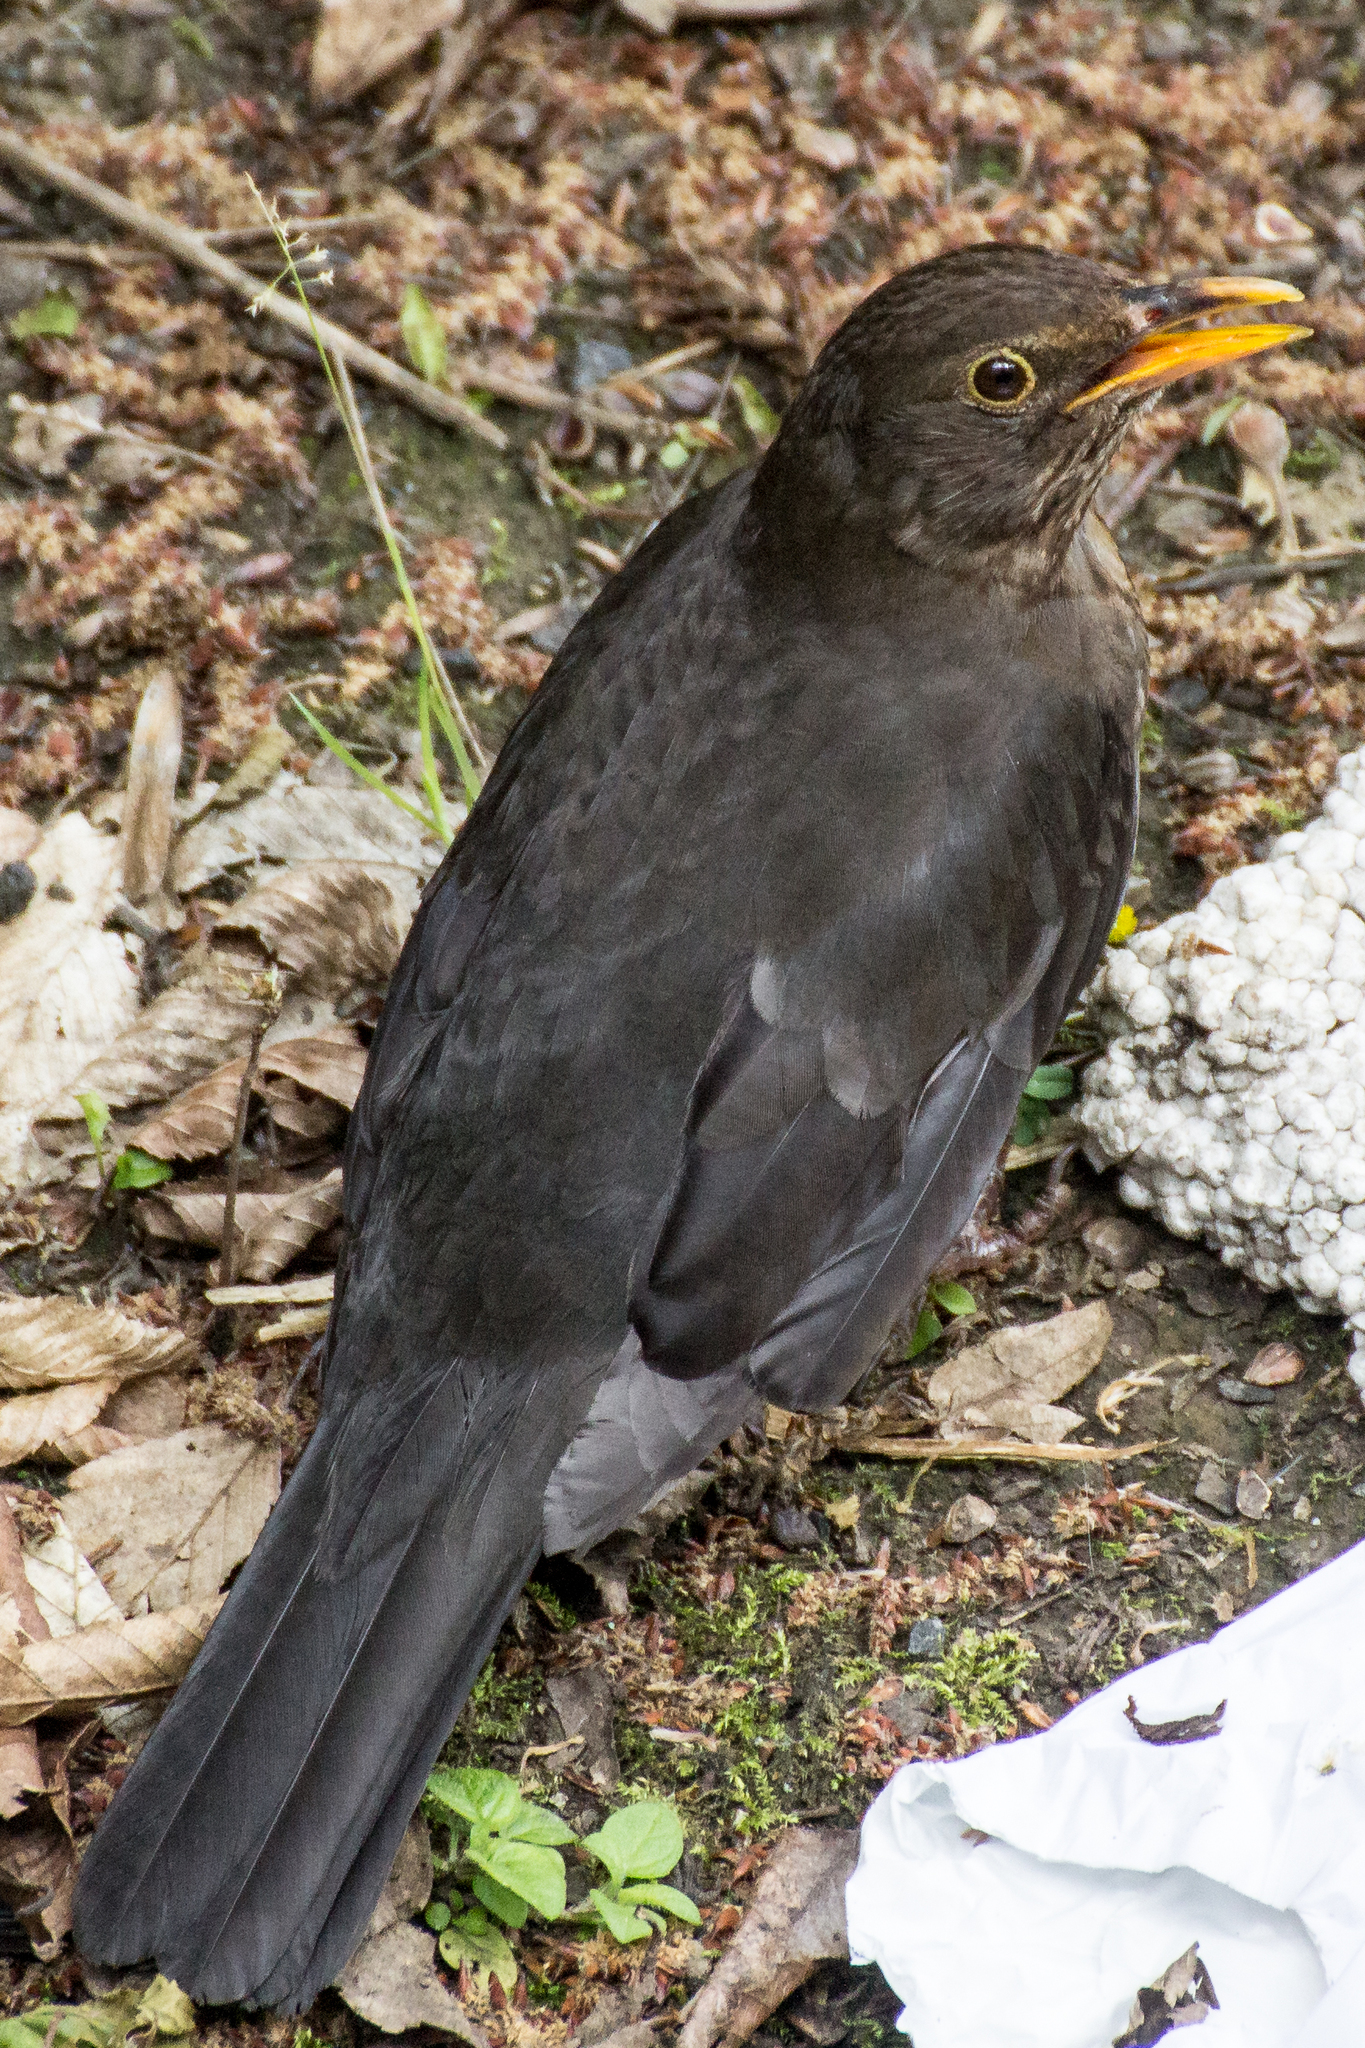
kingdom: Animalia
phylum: Chordata
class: Aves
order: Passeriformes
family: Turdidae
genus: Turdus
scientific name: Turdus merula
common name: Common blackbird
